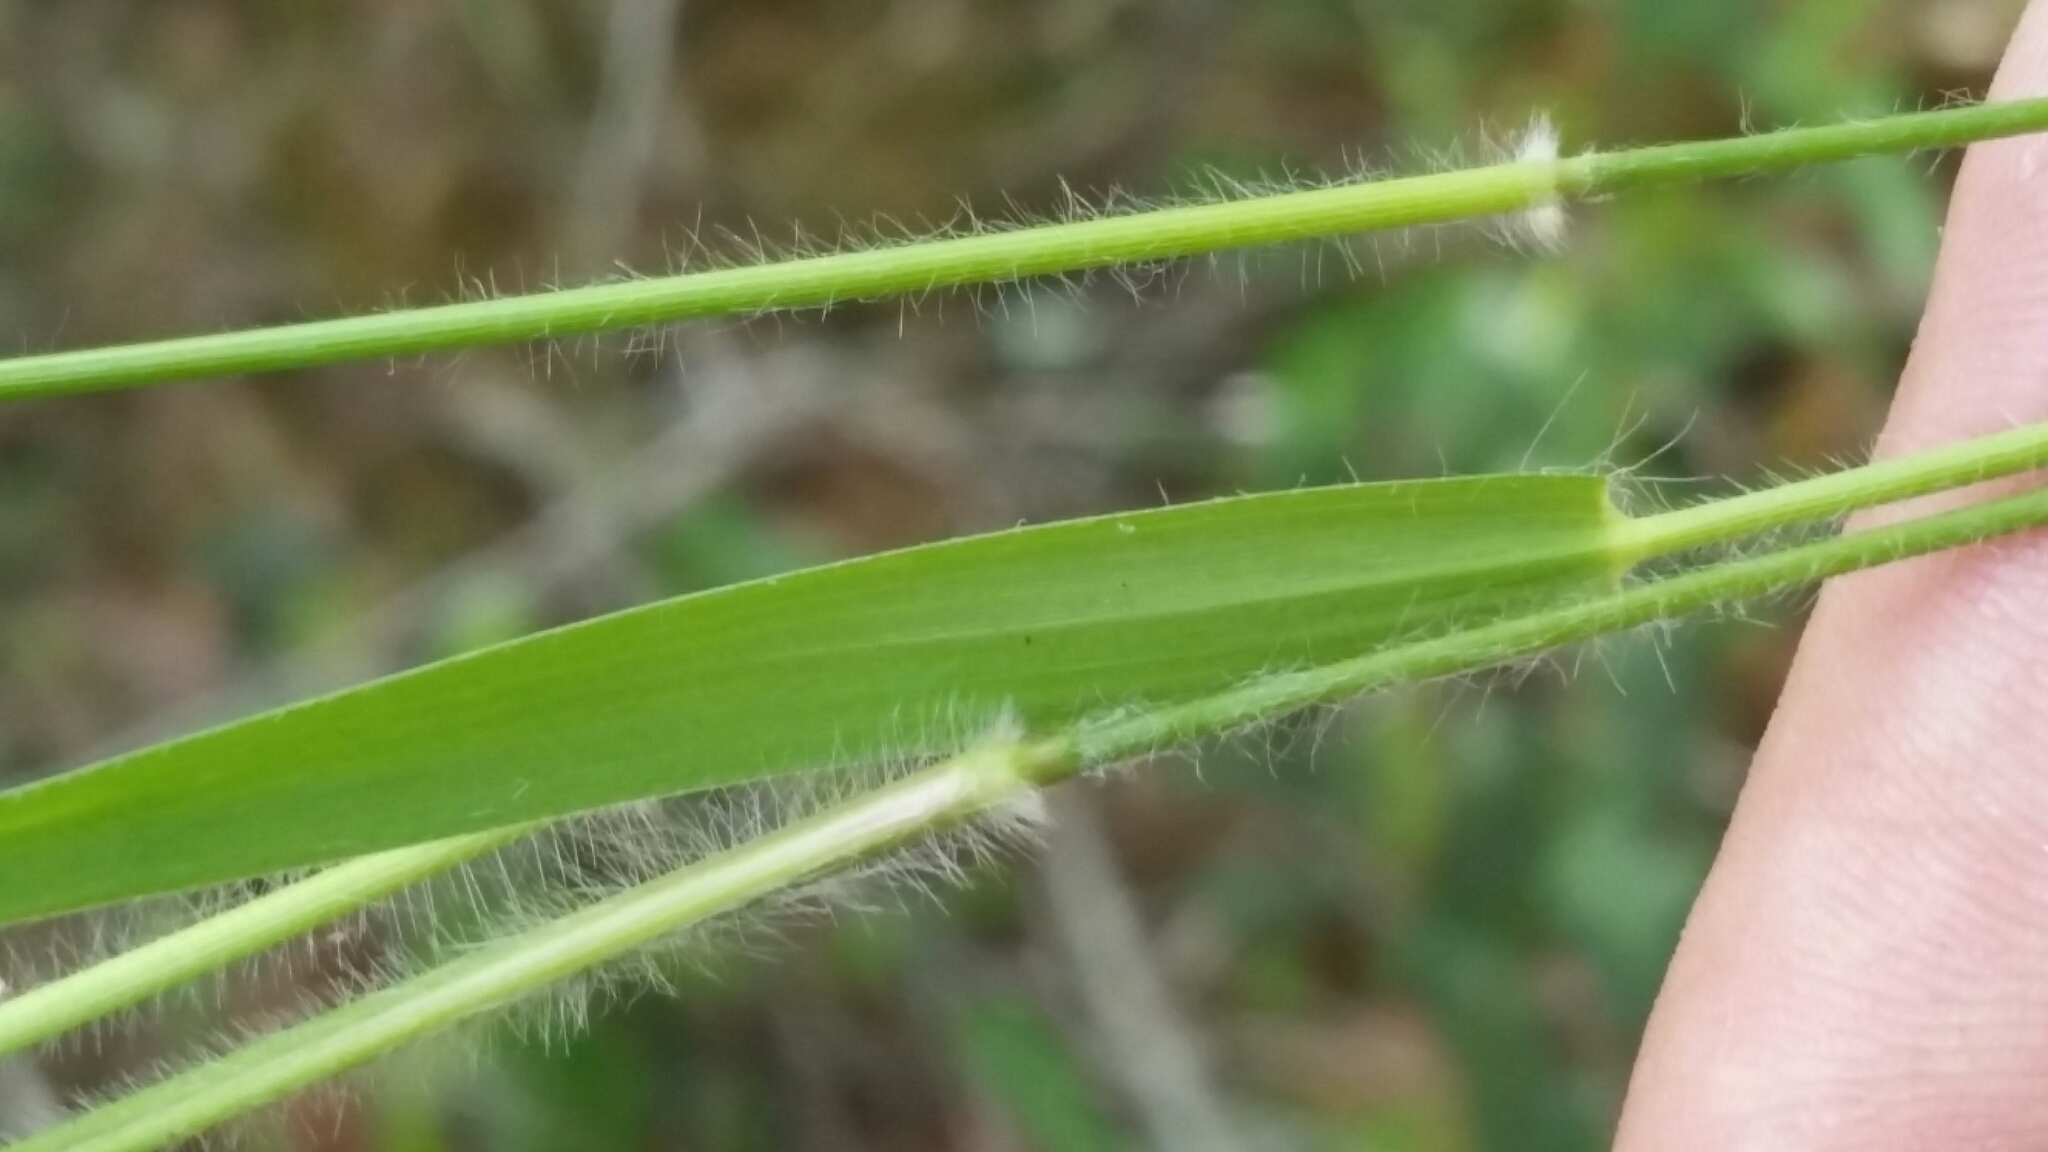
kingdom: Plantae
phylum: Tracheophyta
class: Liliopsida
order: Poales
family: Poaceae
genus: Dichanthelium
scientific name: Dichanthelium ovale
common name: Stiff-leaved panicgrass
